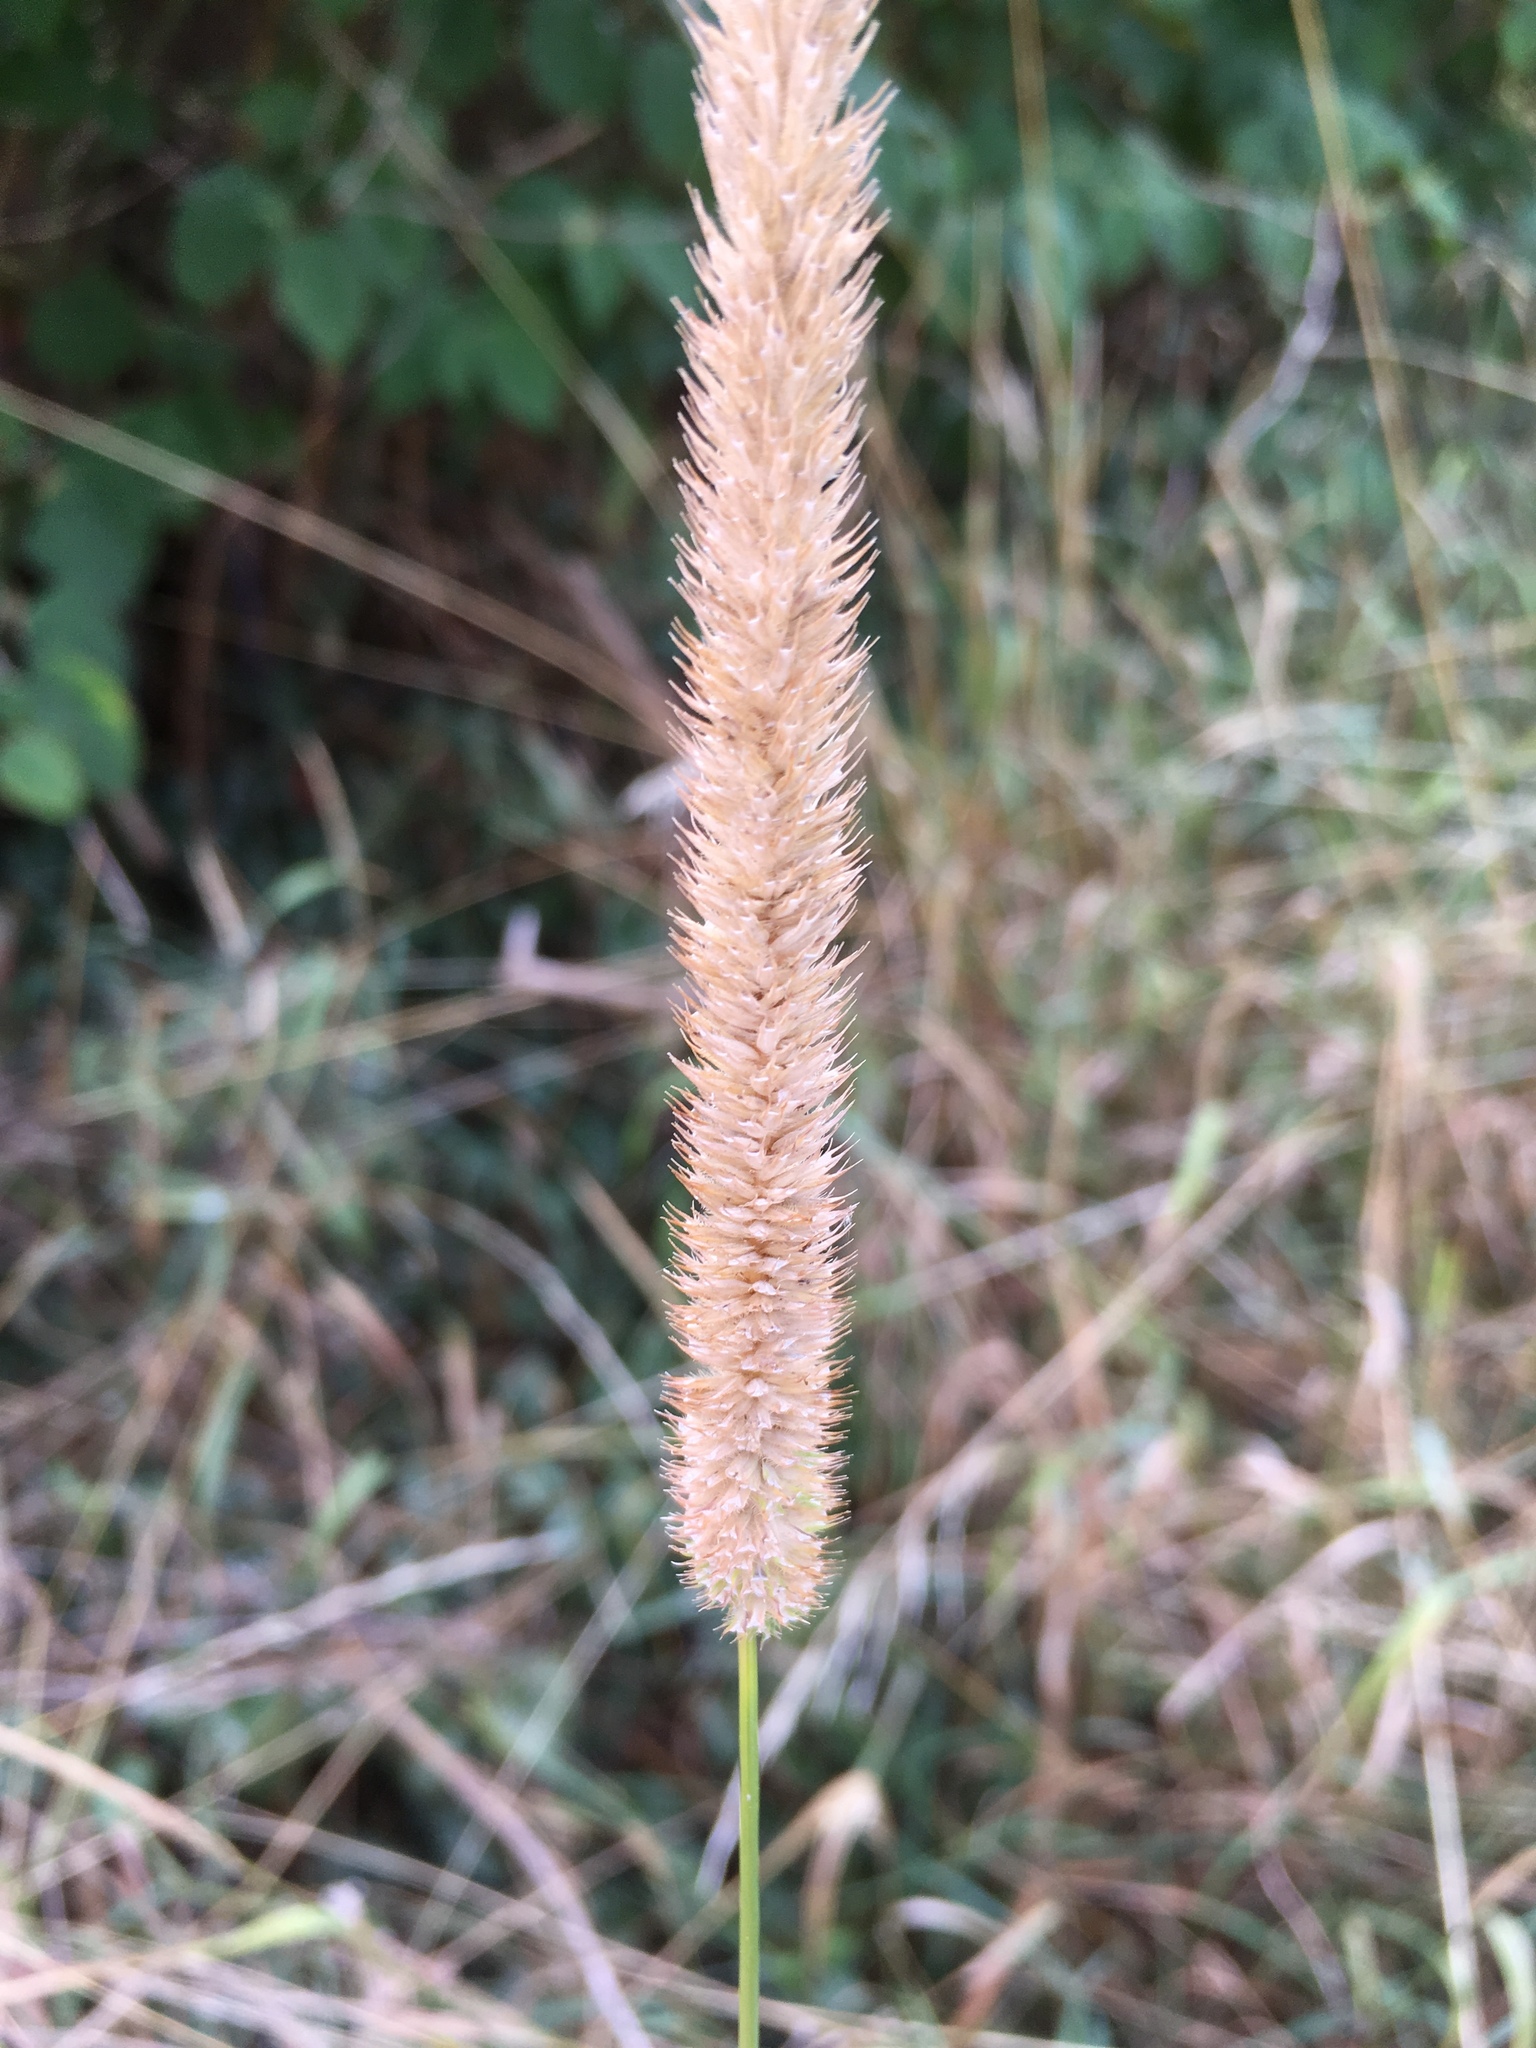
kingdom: Plantae
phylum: Tracheophyta
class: Liliopsida
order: Poales
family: Poaceae
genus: Phleum
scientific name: Phleum pratense
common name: Timothy grass
